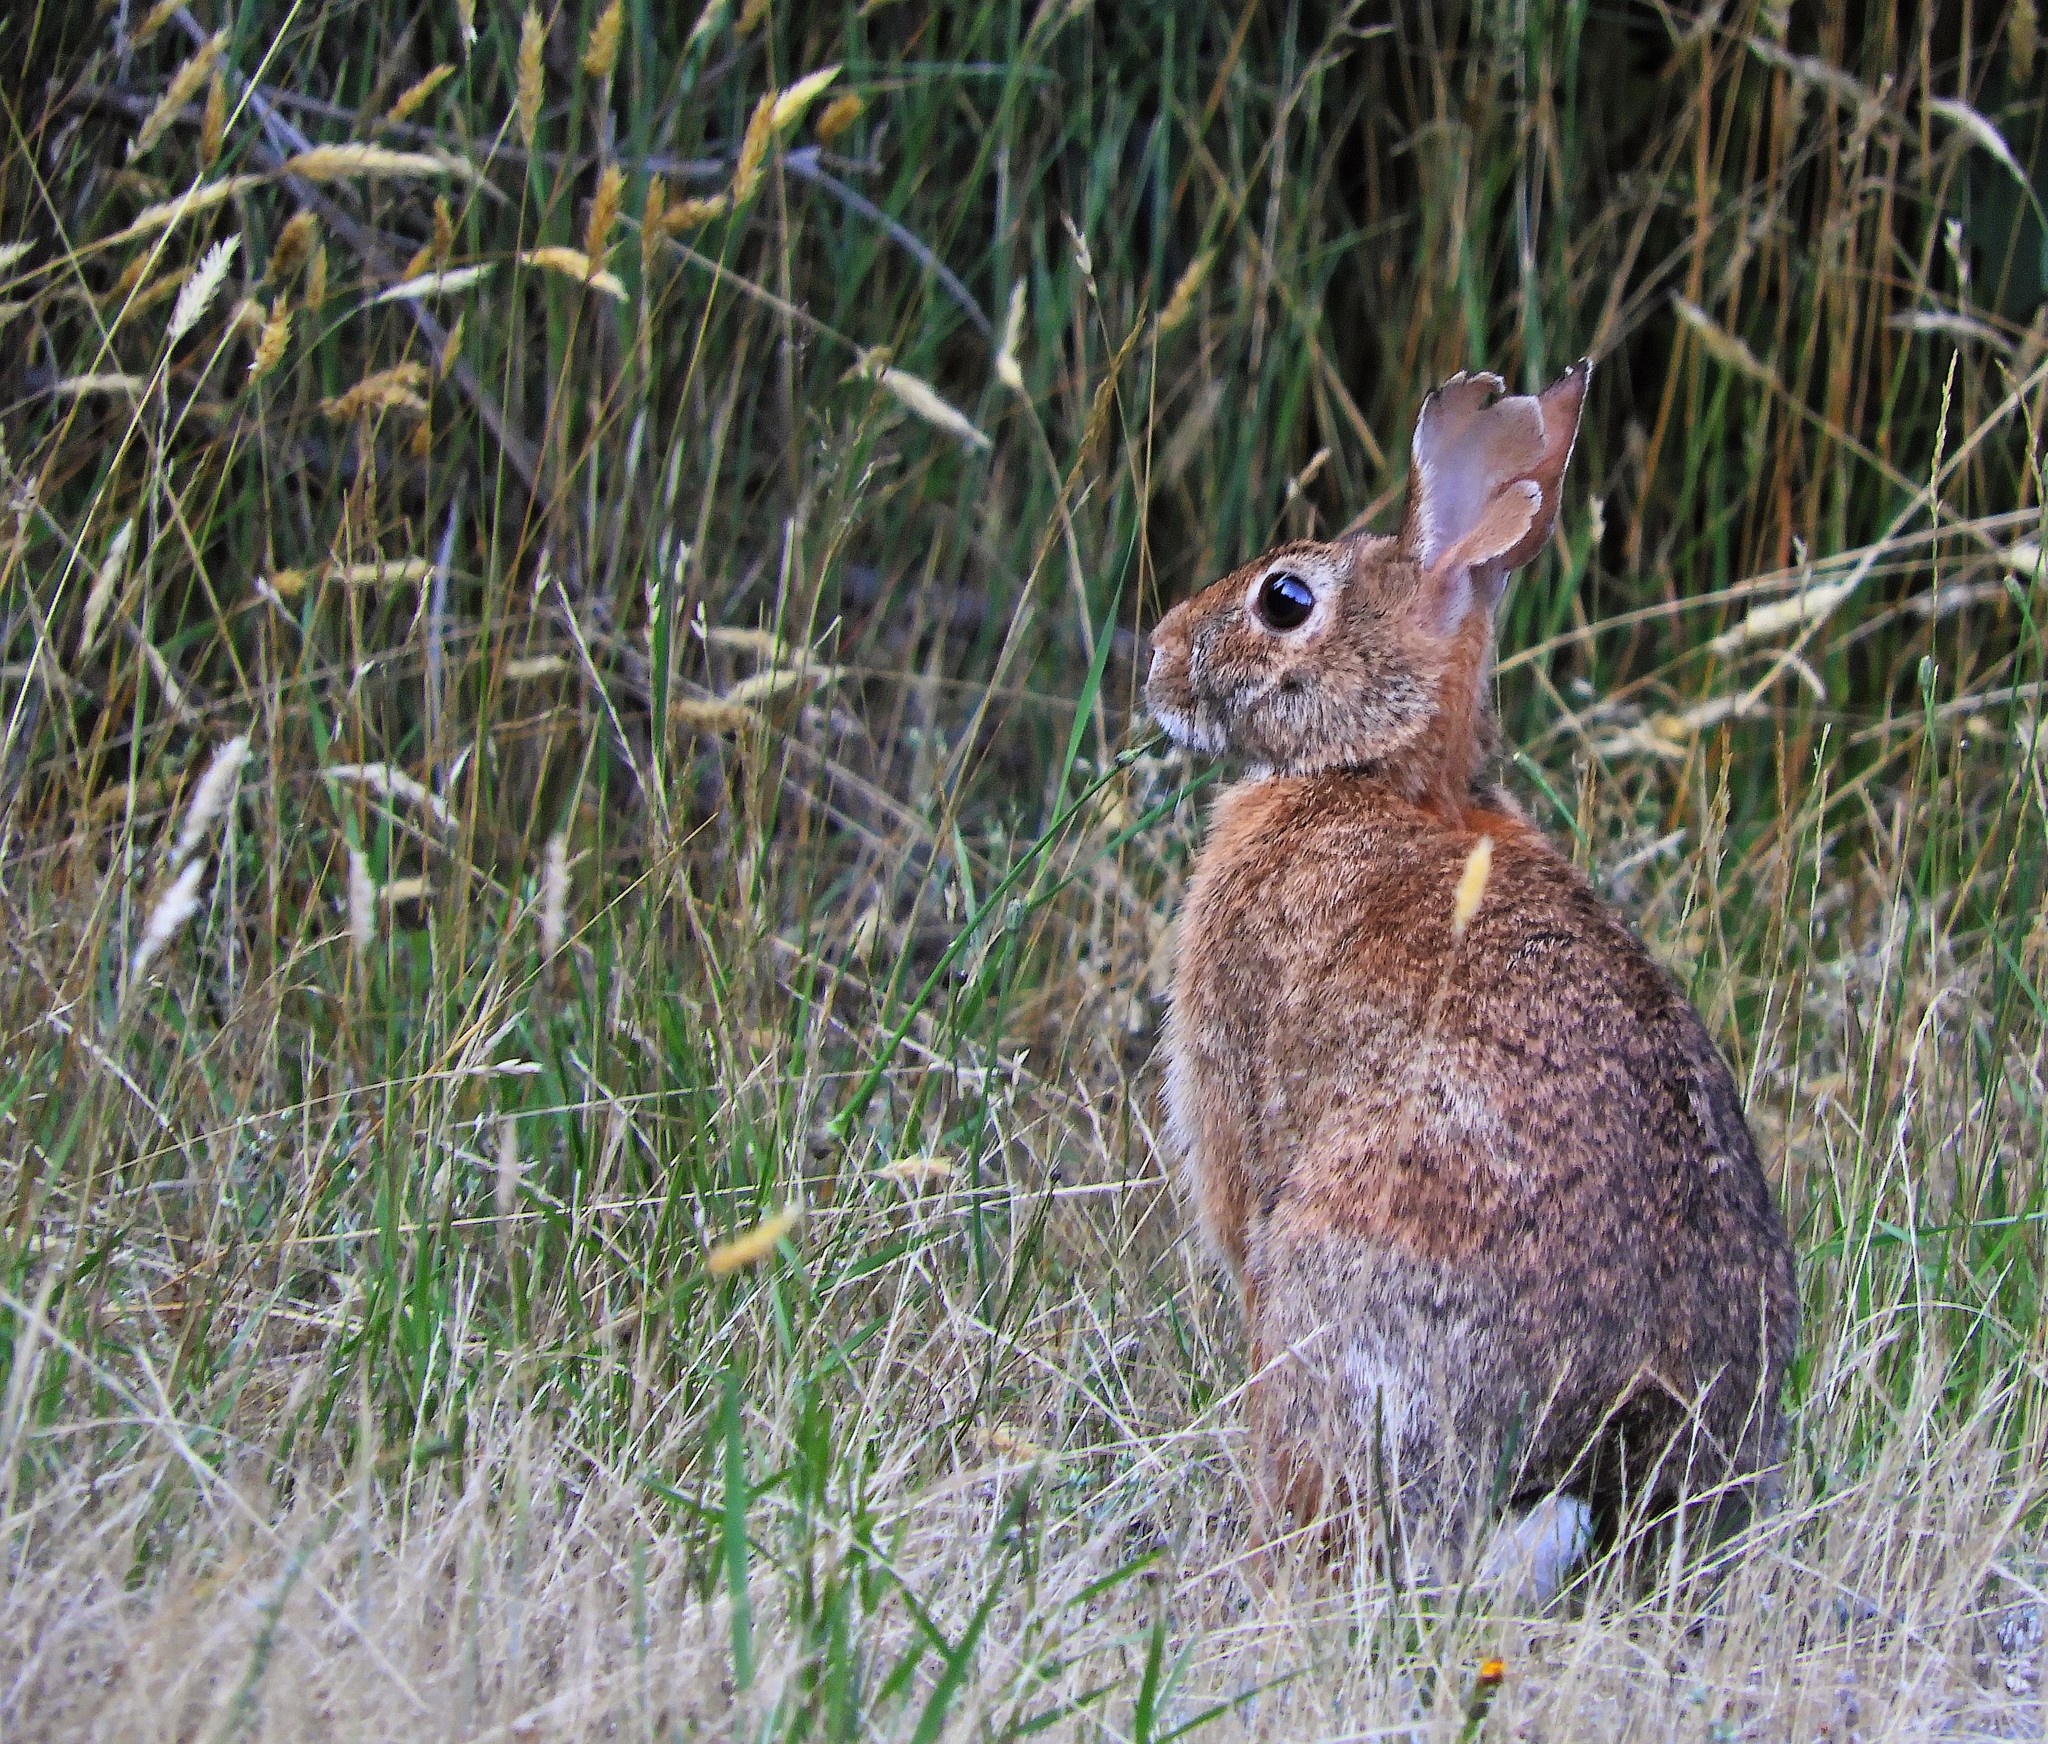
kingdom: Animalia
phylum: Chordata
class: Mammalia
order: Lagomorpha
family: Leporidae
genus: Sylvilagus
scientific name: Sylvilagus floridanus
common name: Eastern cottontail
